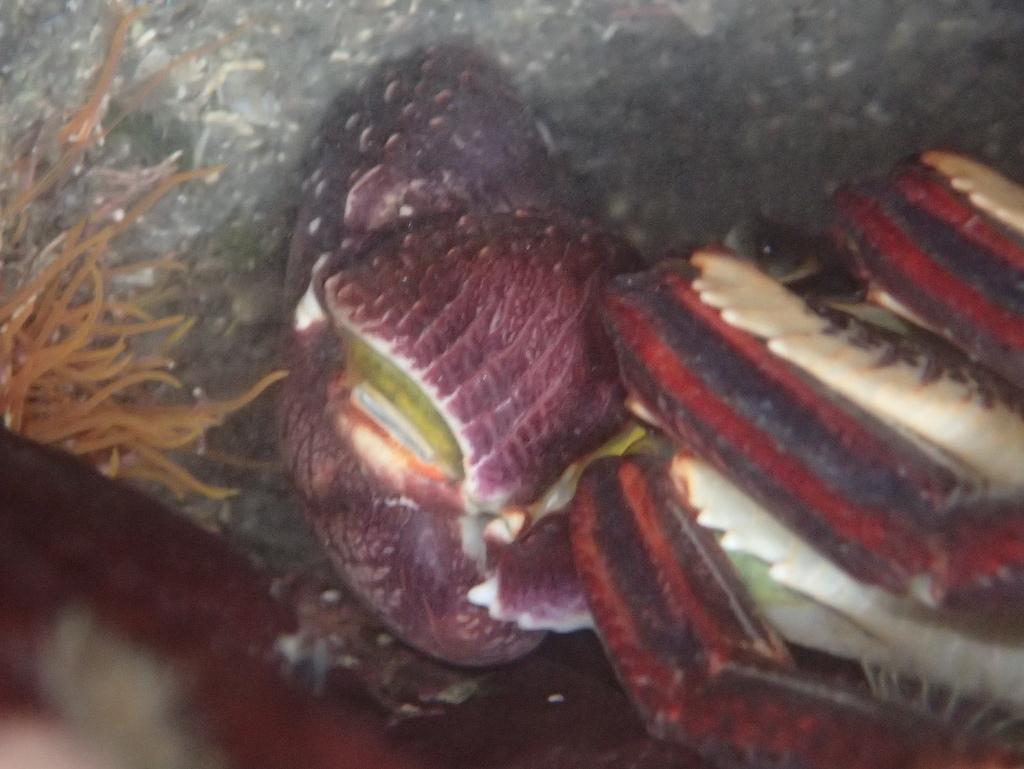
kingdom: Animalia
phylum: Arthropoda
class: Malacostraca
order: Decapoda
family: Grapsidae
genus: Leptograpsus
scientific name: Leptograpsus variegatus
